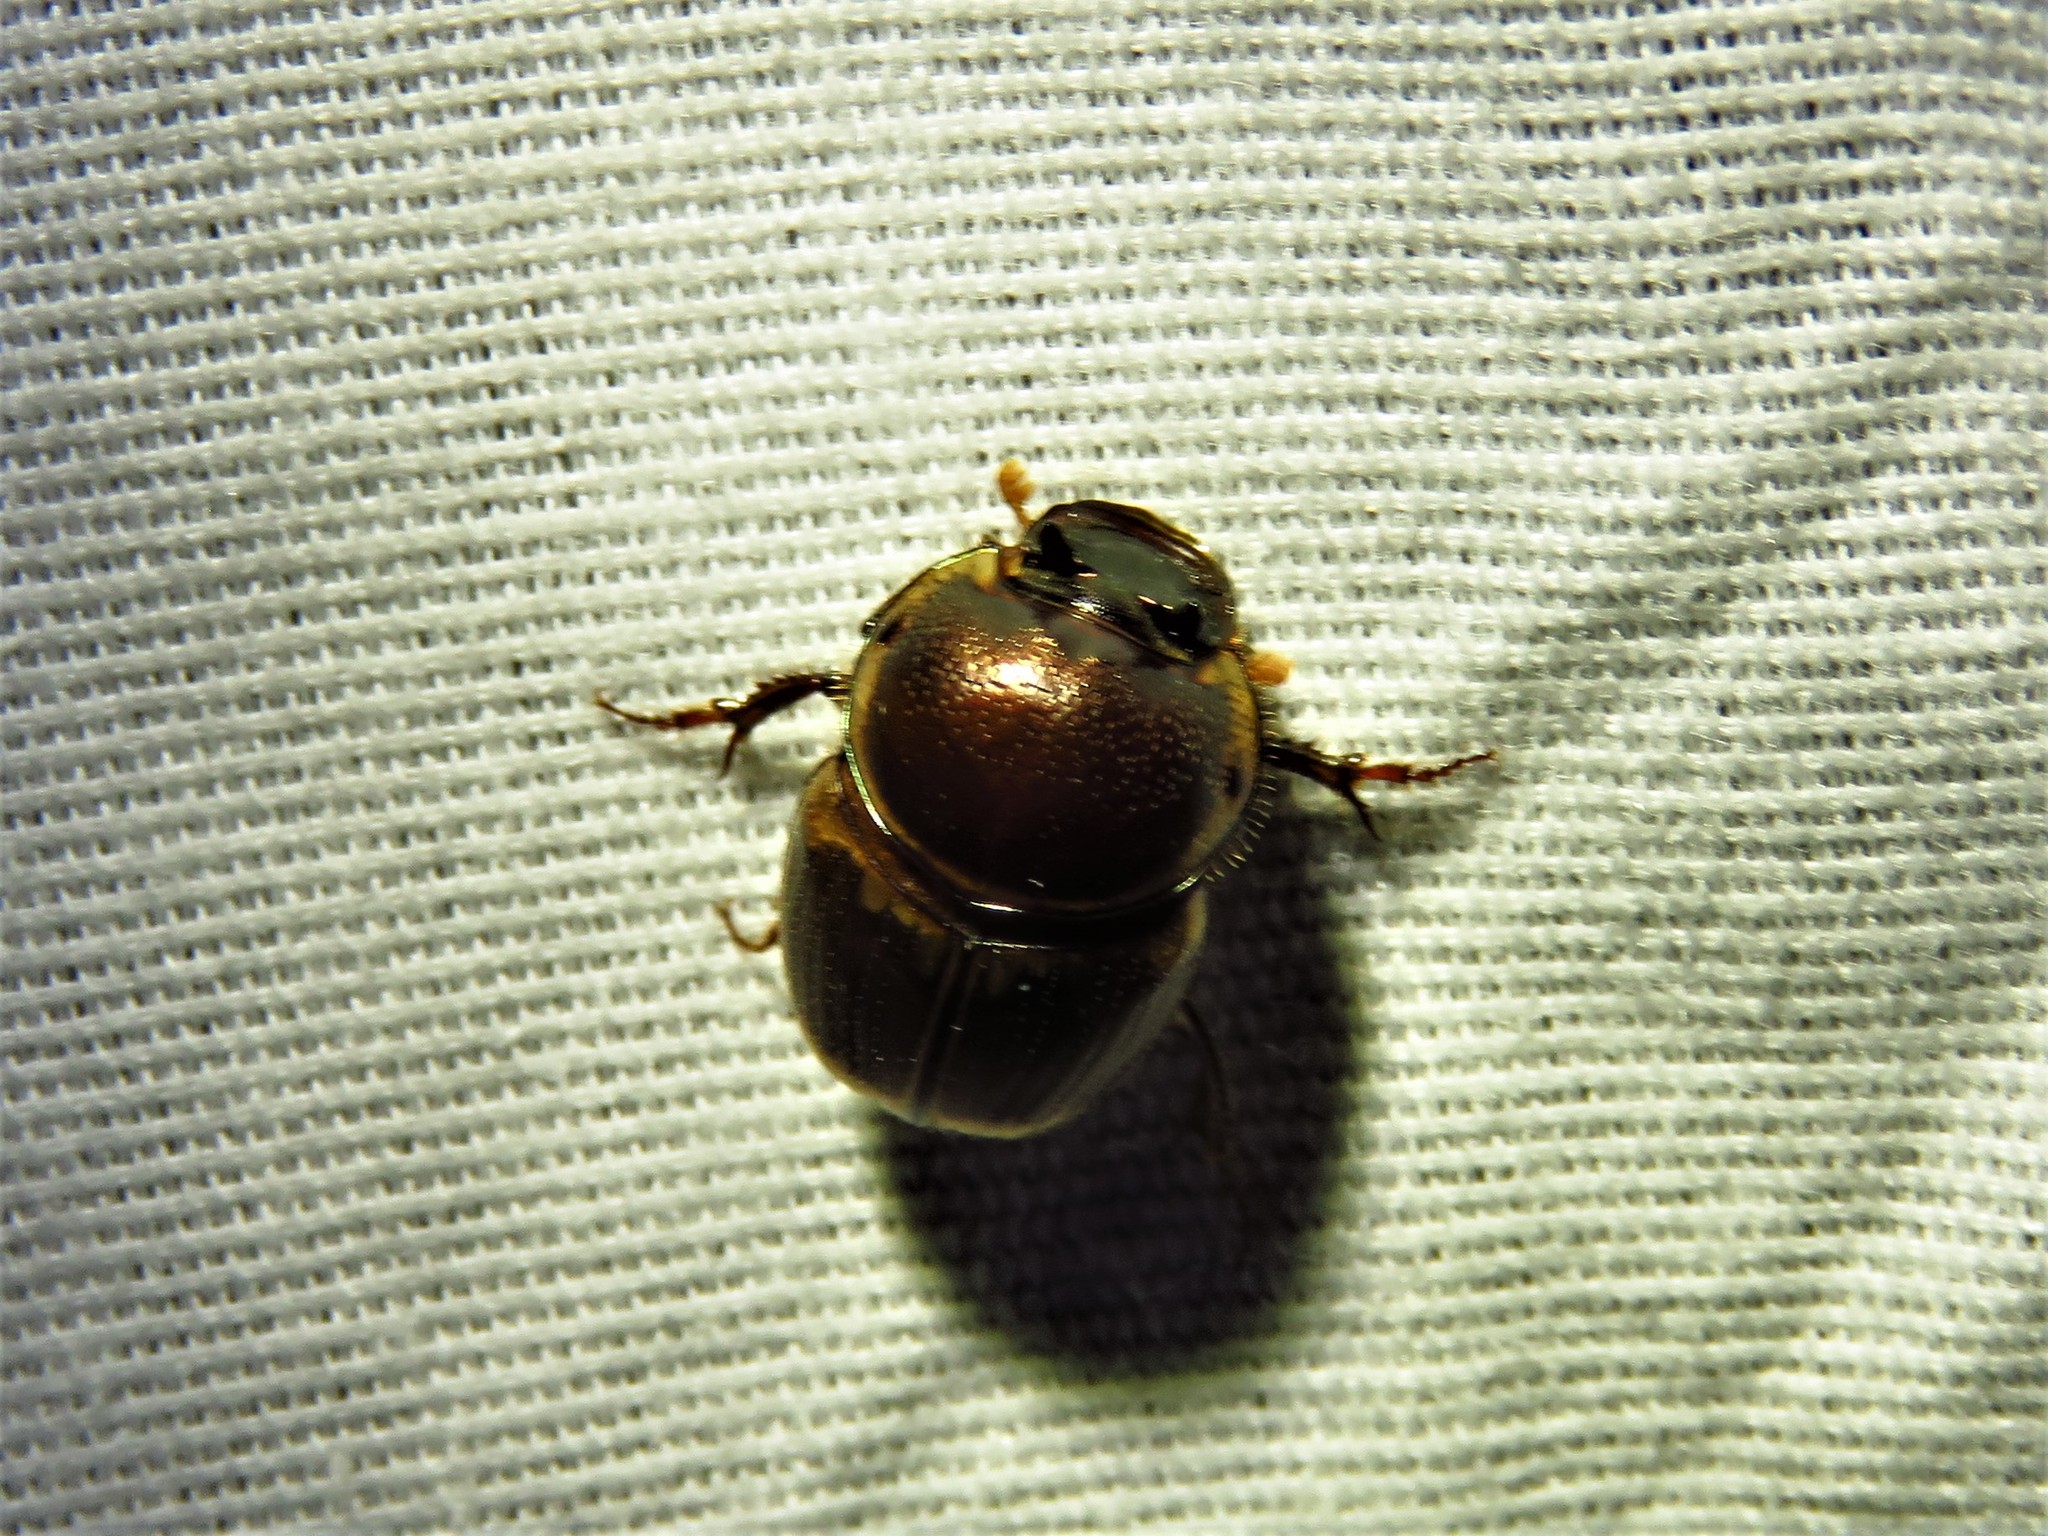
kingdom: Animalia
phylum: Arthropoda
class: Insecta
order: Coleoptera
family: Scarabaeidae
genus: Digitonthophagus
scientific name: Digitonthophagus gazella
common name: Brown dung beetle
